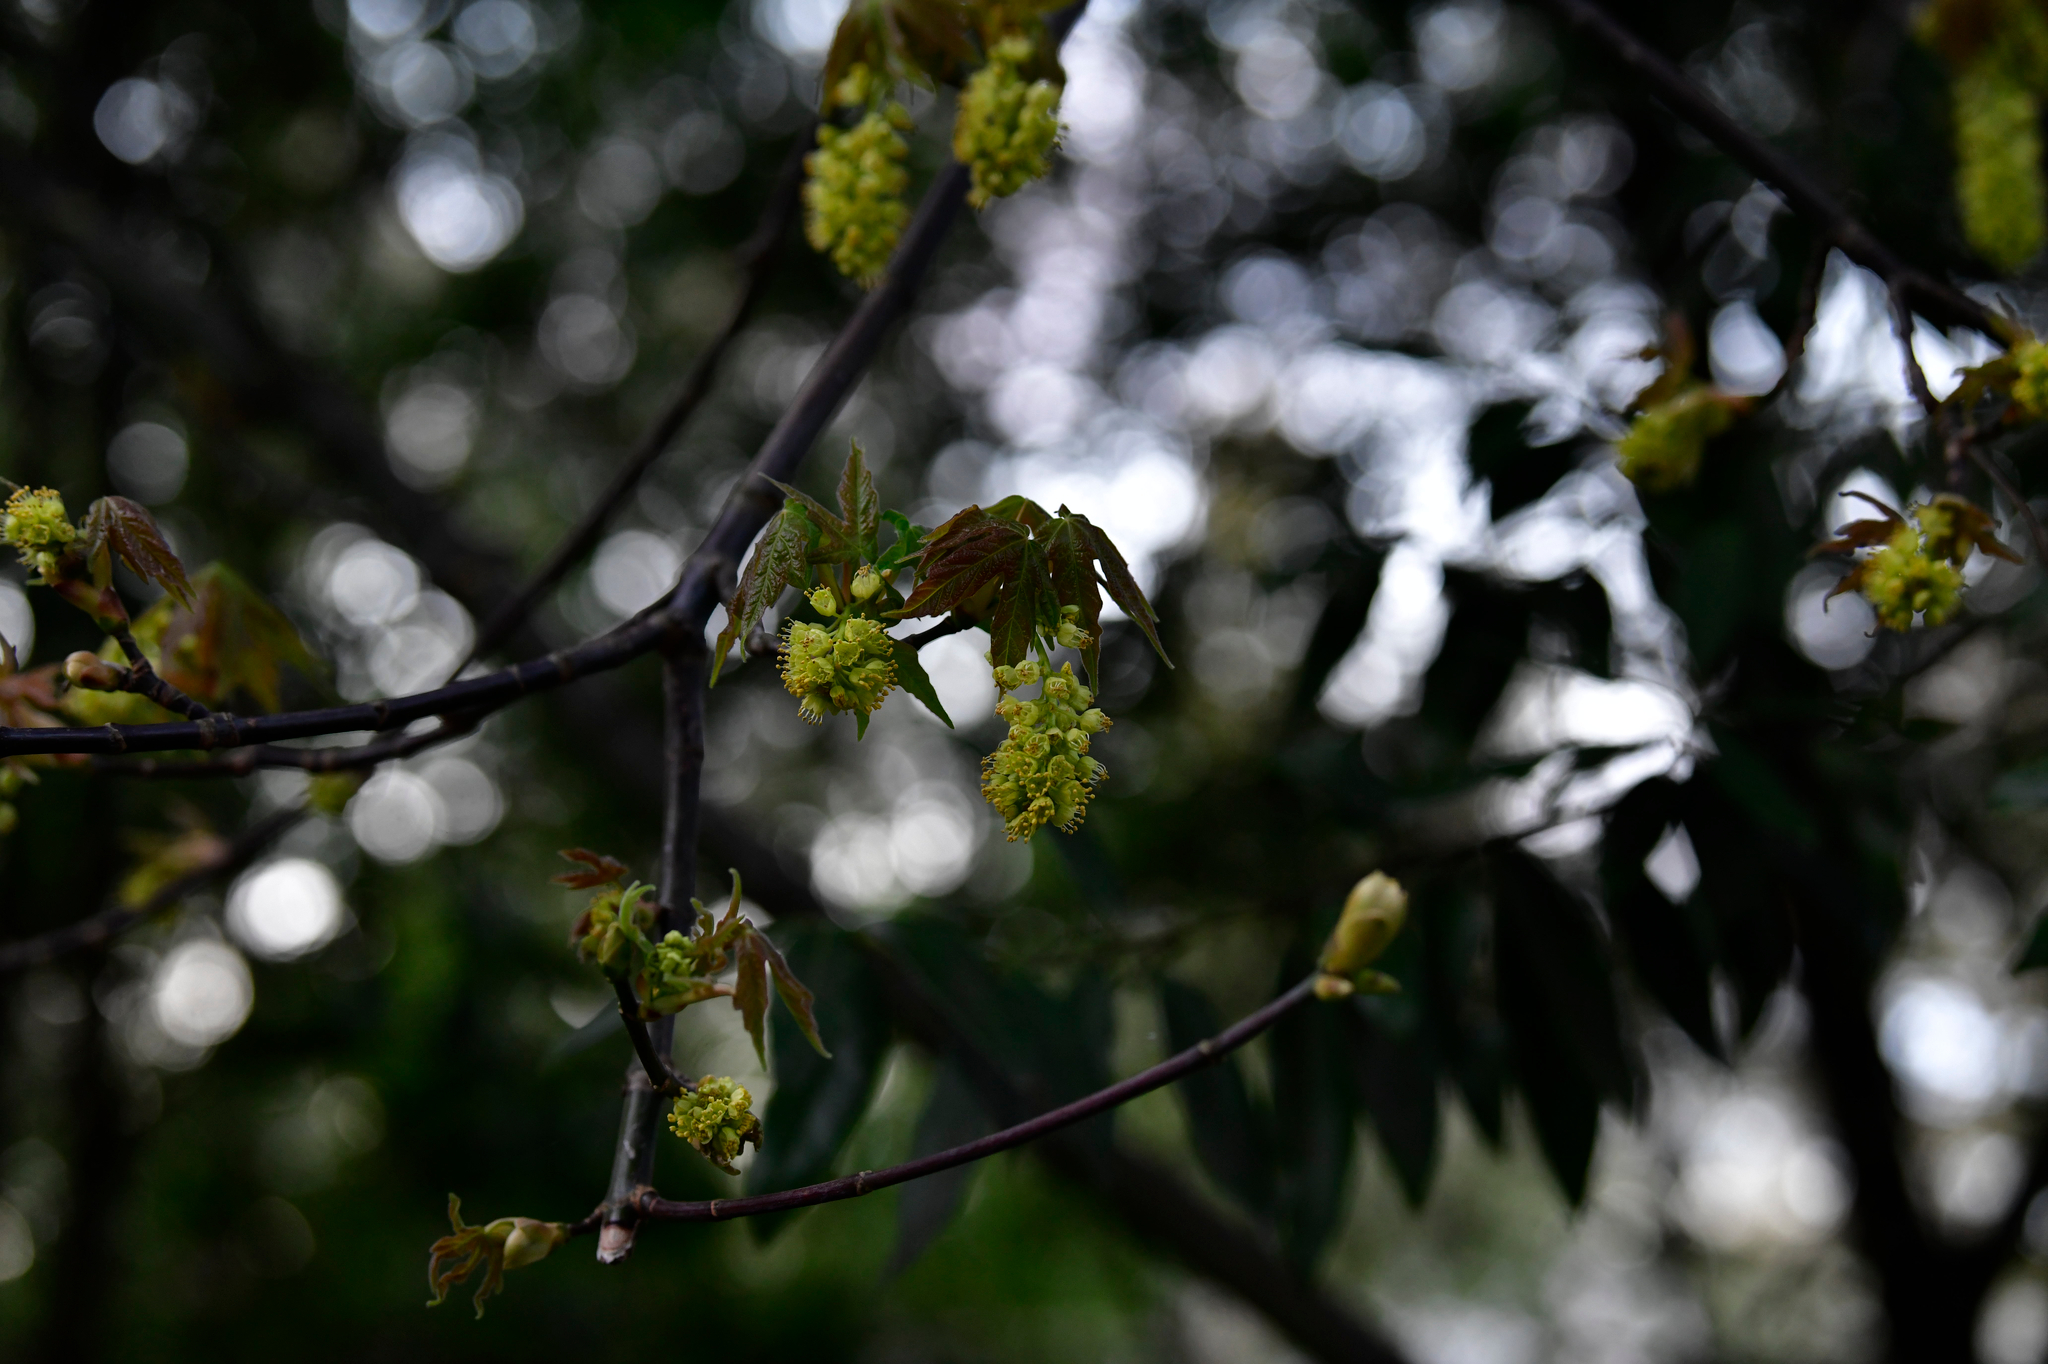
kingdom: Plantae
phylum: Tracheophyta
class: Magnoliopsida
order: Sapindales
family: Sapindaceae
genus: Acer
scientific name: Acer macrophyllum
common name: Oregon maple
